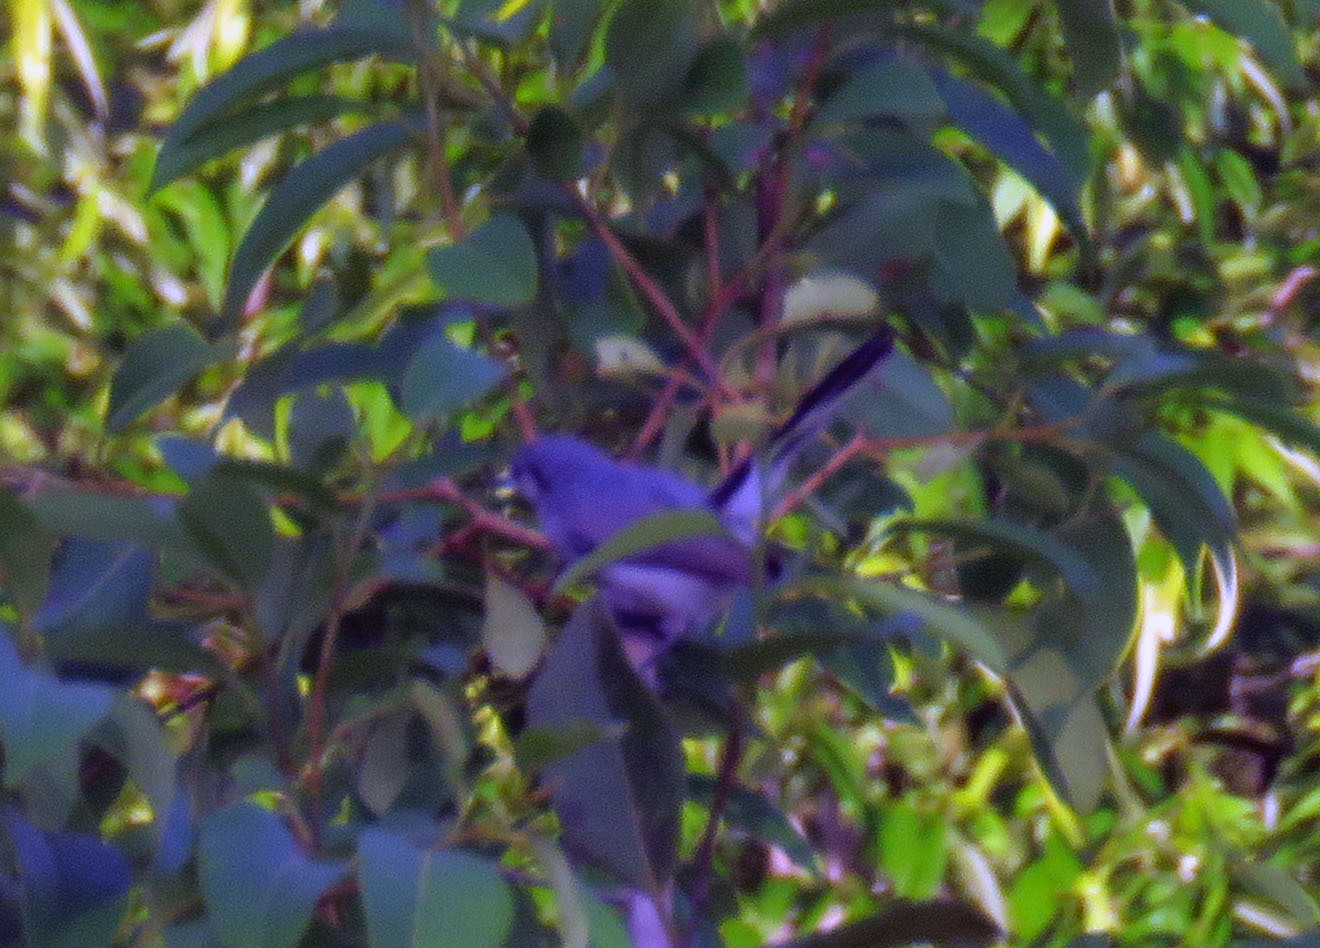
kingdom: Animalia
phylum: Chordata
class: Aves
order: Passeriformes
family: Polioptilidae
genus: Polioptila
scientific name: Polioptila dumicola
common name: Masked gnatcatcher
